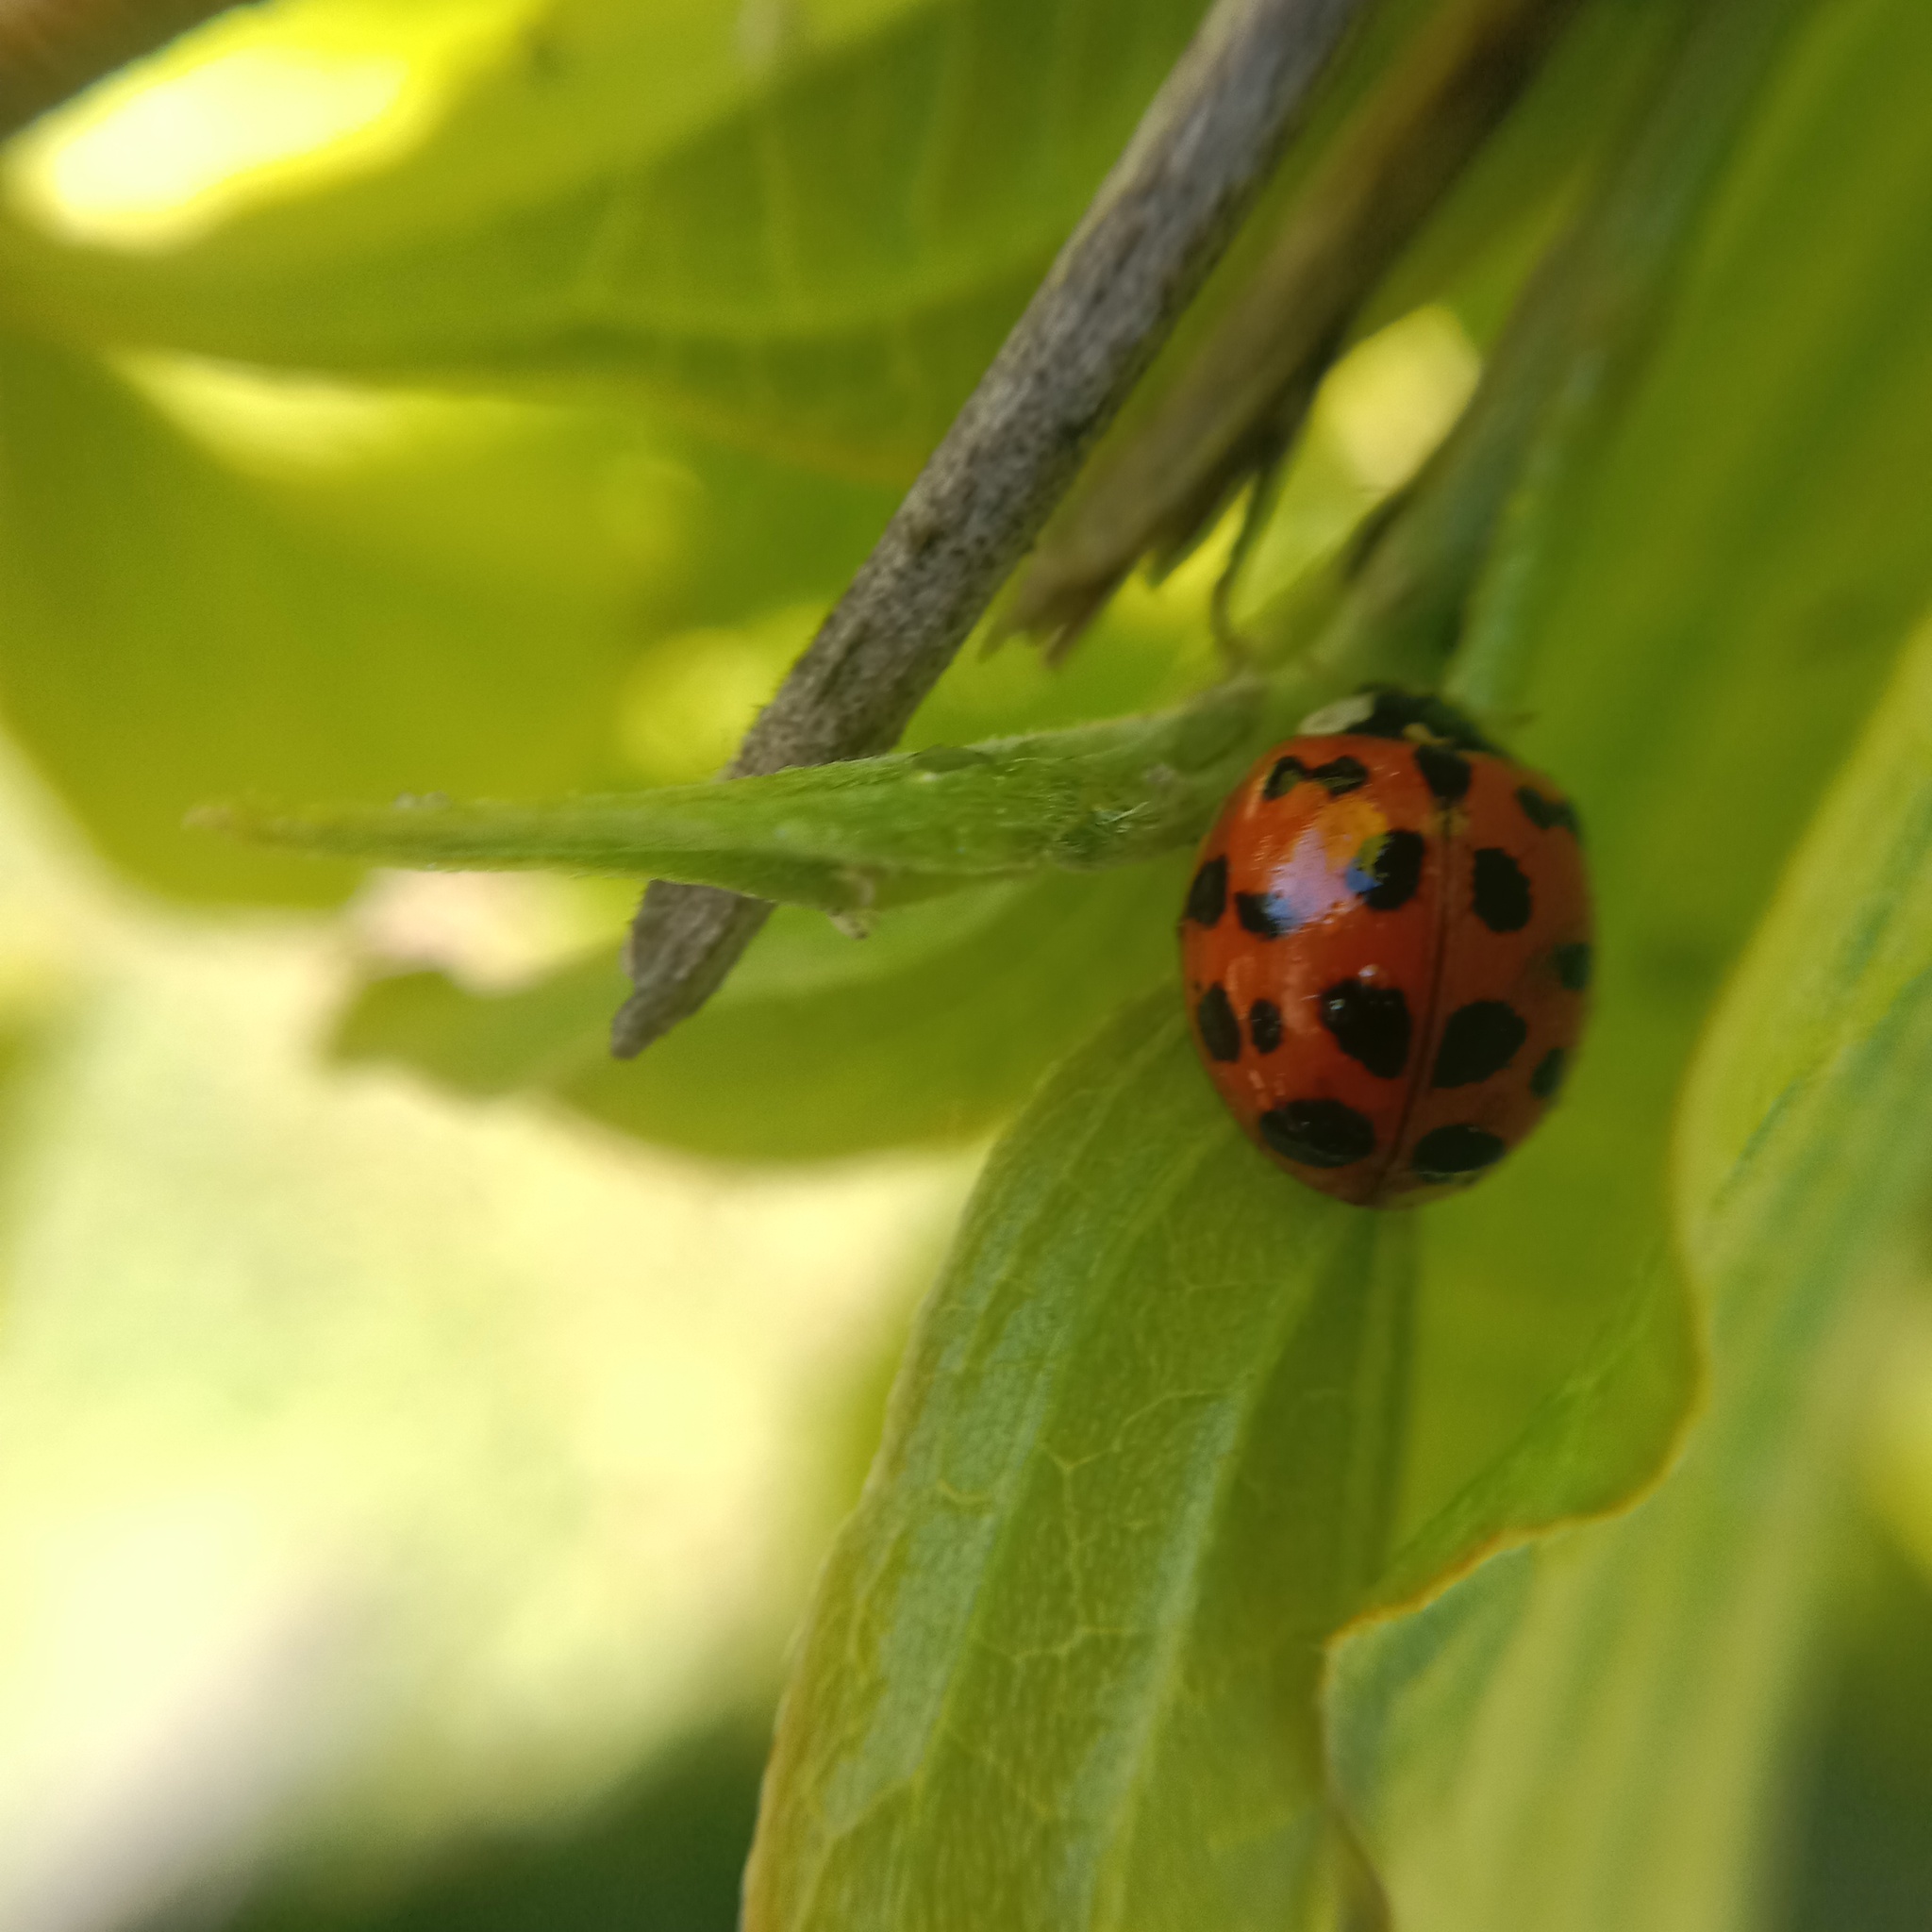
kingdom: Animalia
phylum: Arthropoda
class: Insecta
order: Coleoptera
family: Coccinellidae
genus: Harmonia
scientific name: Harmonia axyridis
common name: Harlequin ladybird
